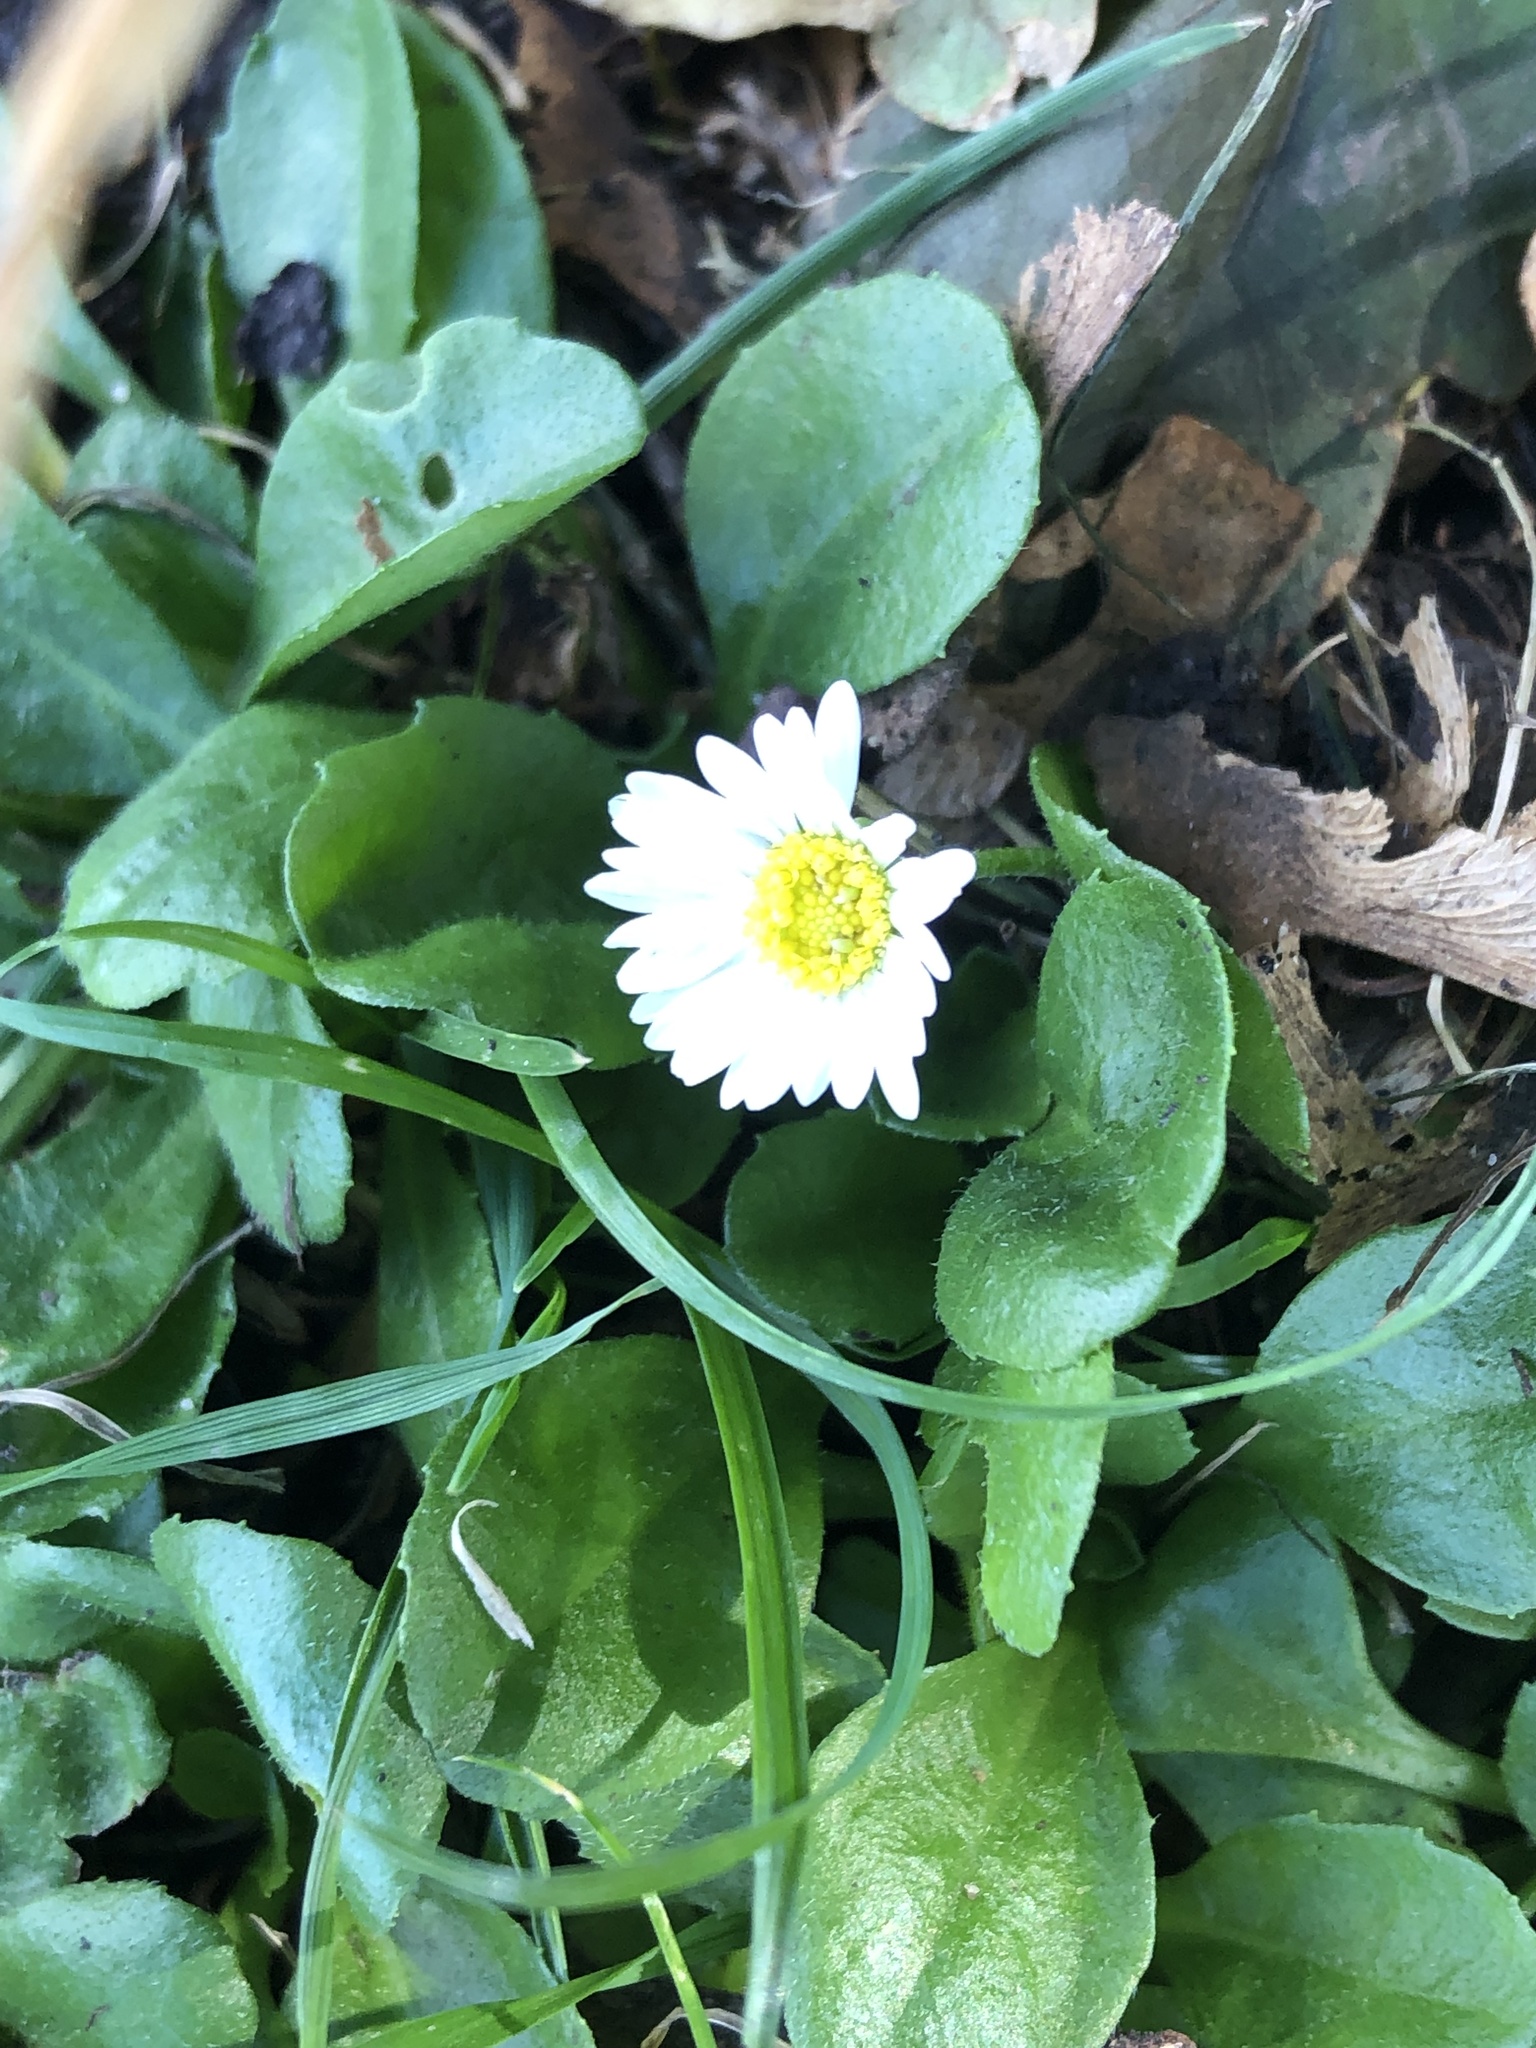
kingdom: Plantae
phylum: Tracheophyta
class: Magnoliopsida
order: Asterales
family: Asteraceae
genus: Bellis
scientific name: Bellis perennis
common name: Lawndaisy
